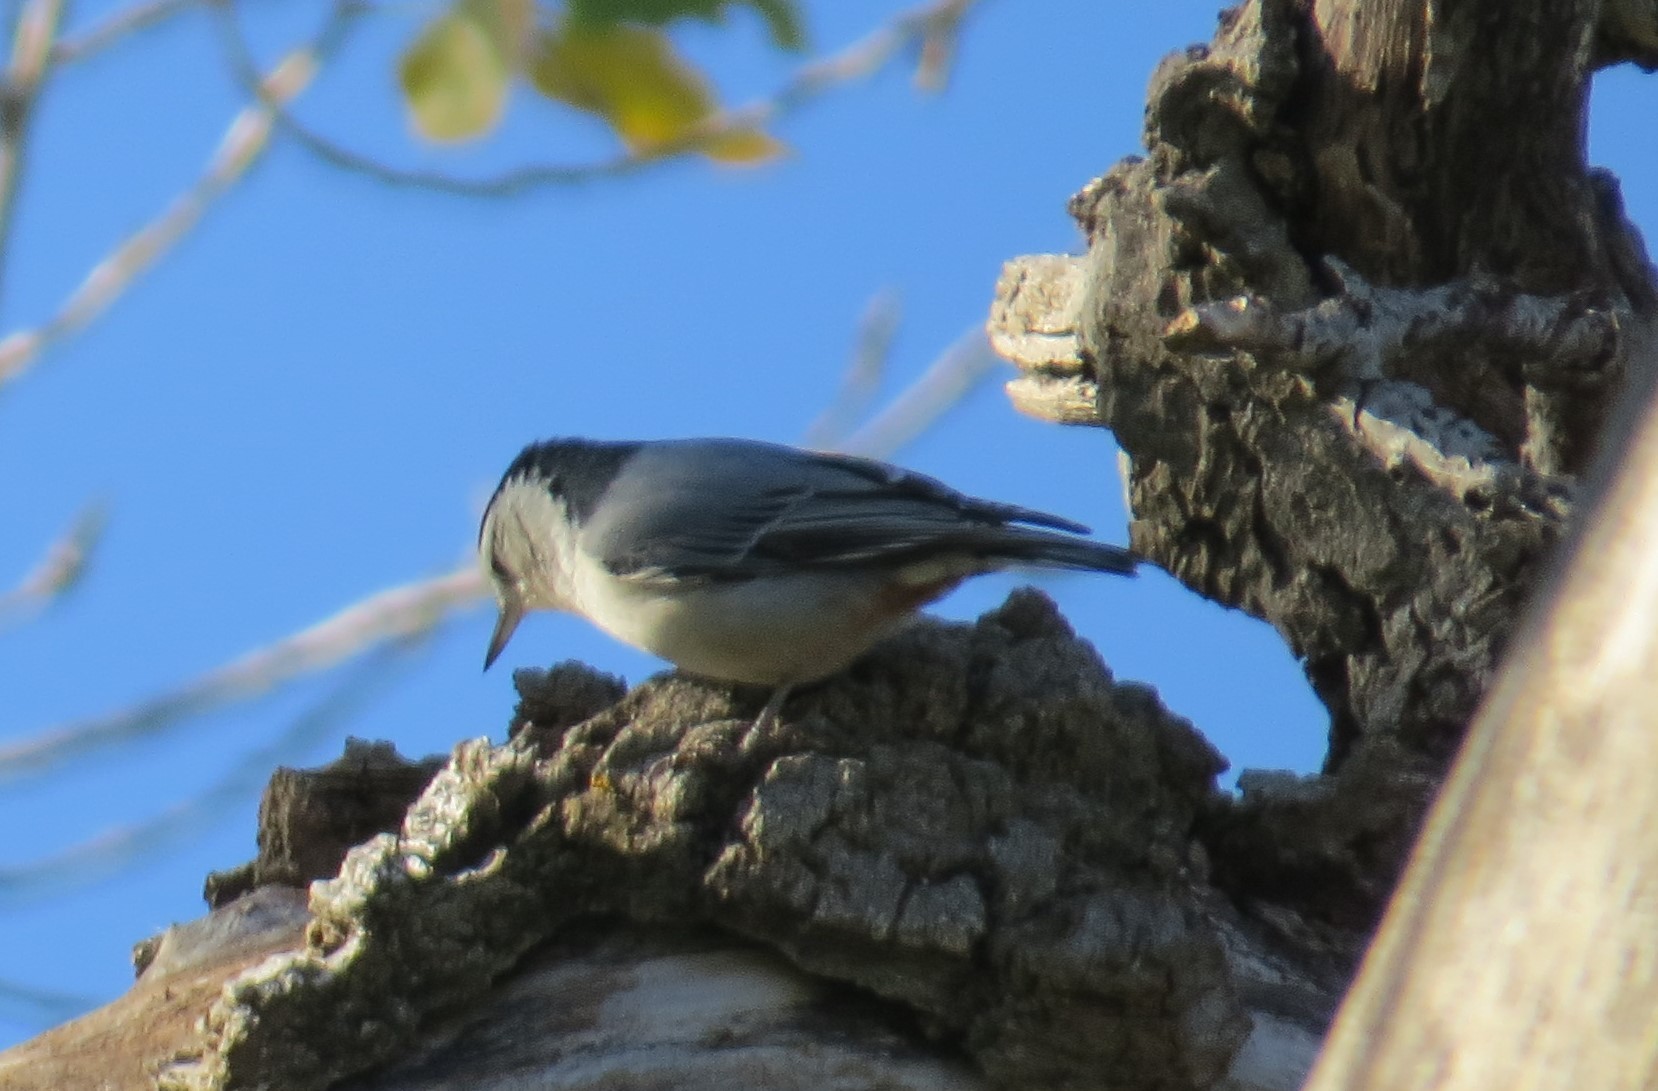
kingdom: Animalia
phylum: Chordata
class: Aves
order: Passeriformes
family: Sittidae
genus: Sitta
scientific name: Sitta carolinensis
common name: White-breasted nuthatch
